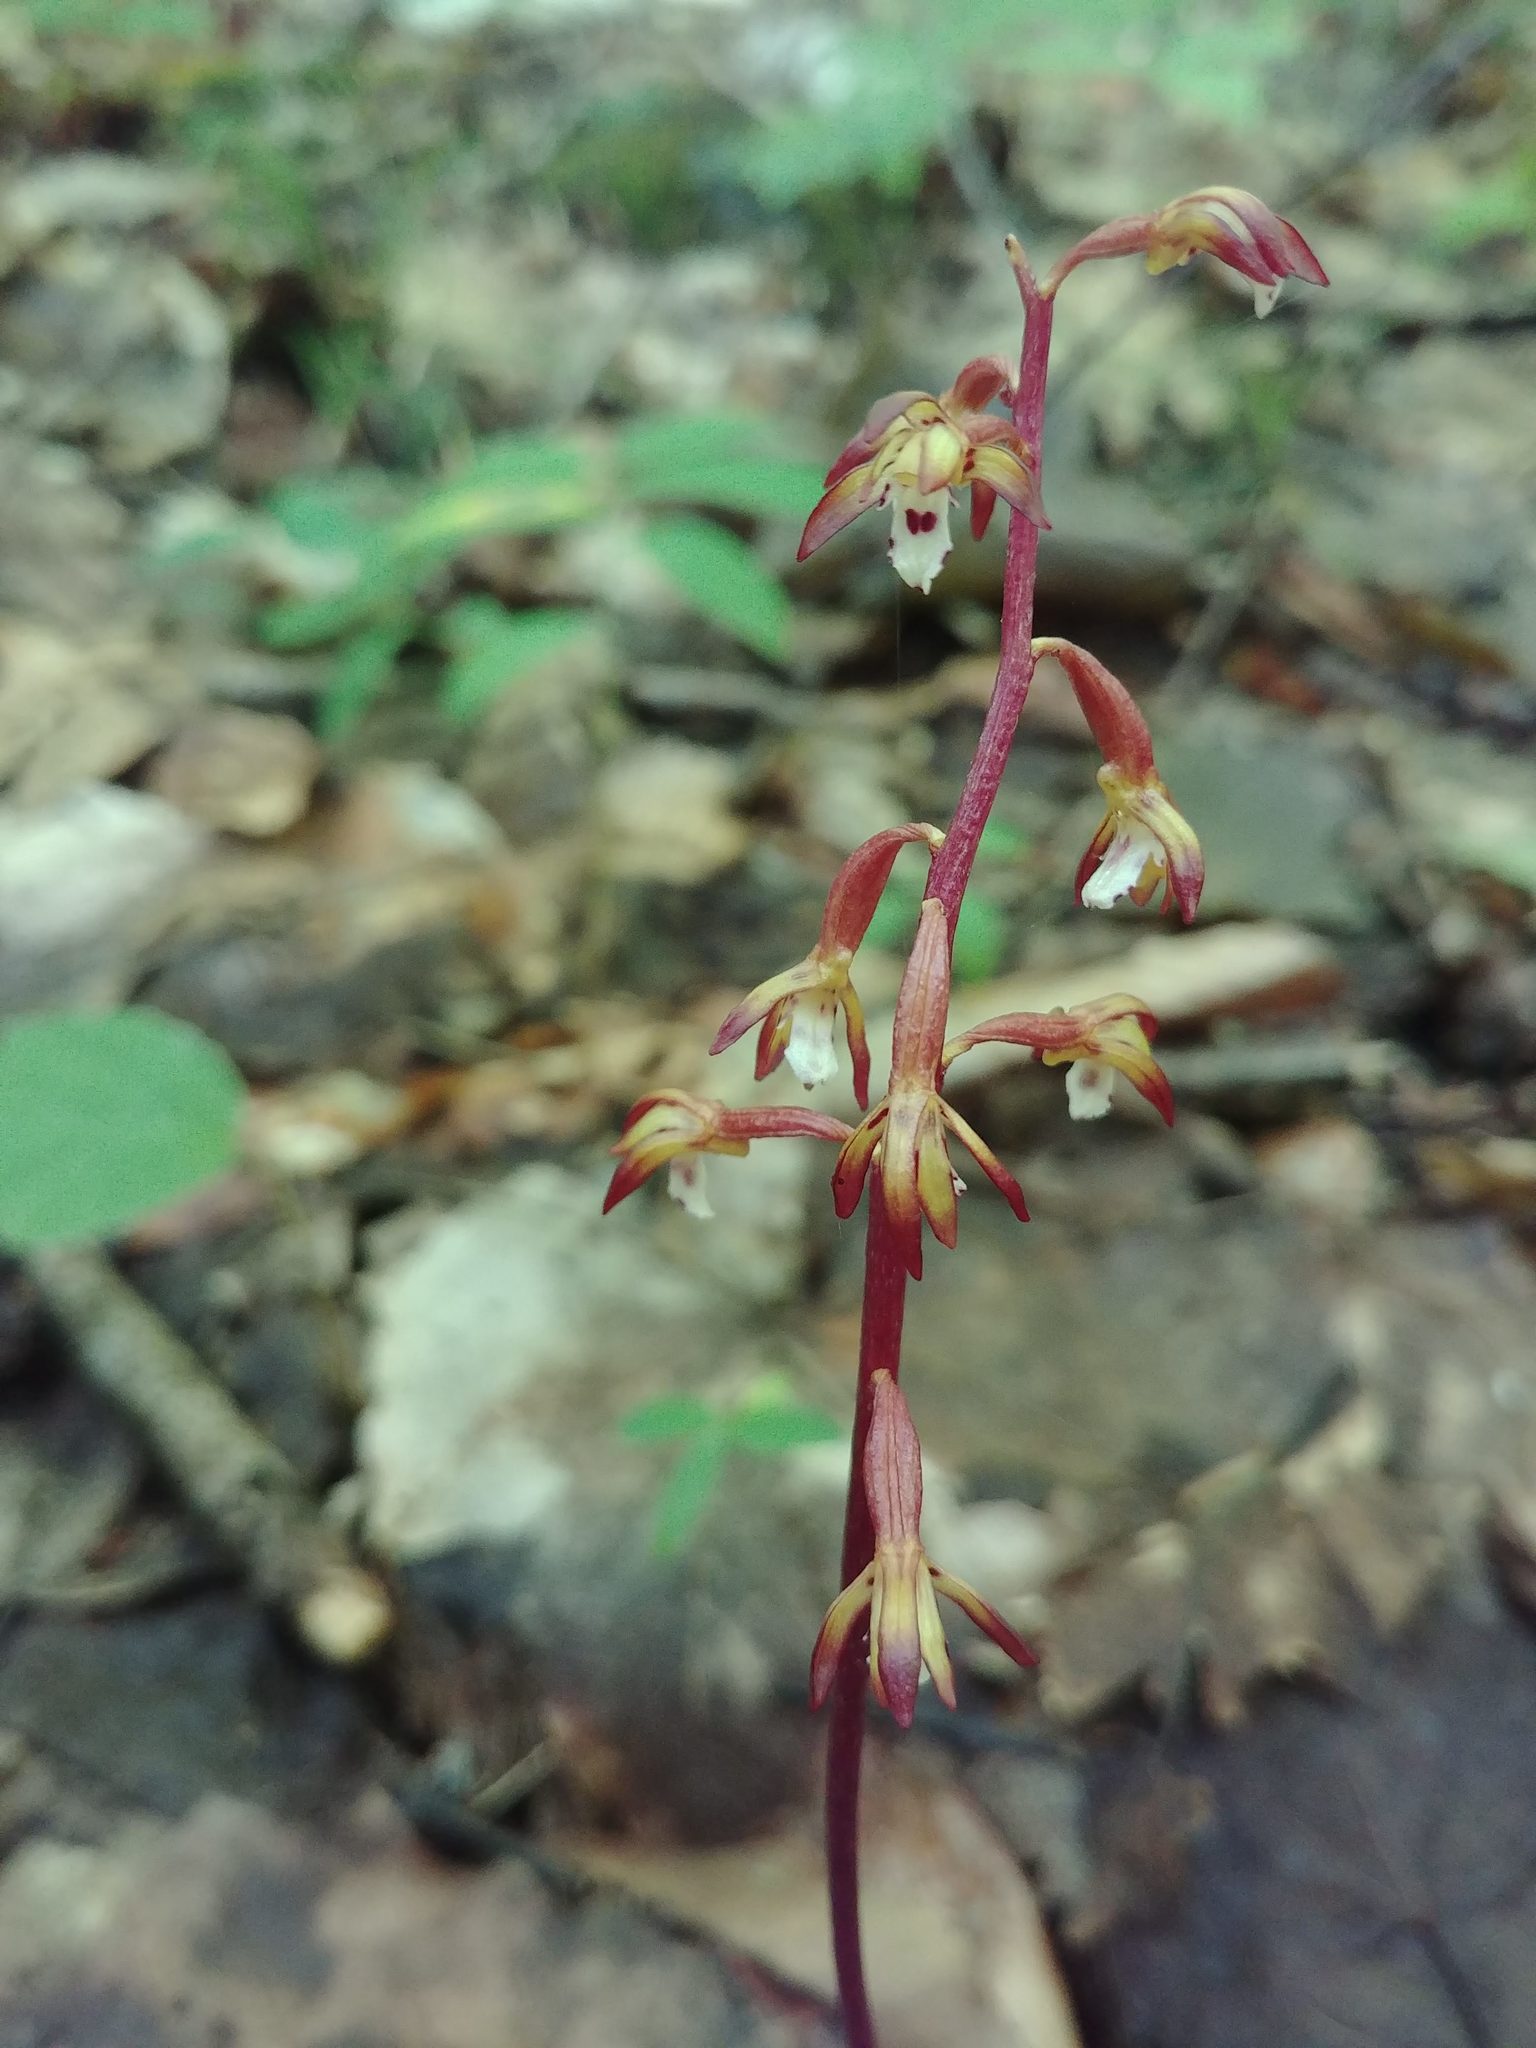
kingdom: Plantae
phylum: Tracheophyta
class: Liliopsida
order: Asparagales
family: Orchidaceae
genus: Corallorhiza
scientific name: Corallorhiza maculata
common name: Spotted coralroot
